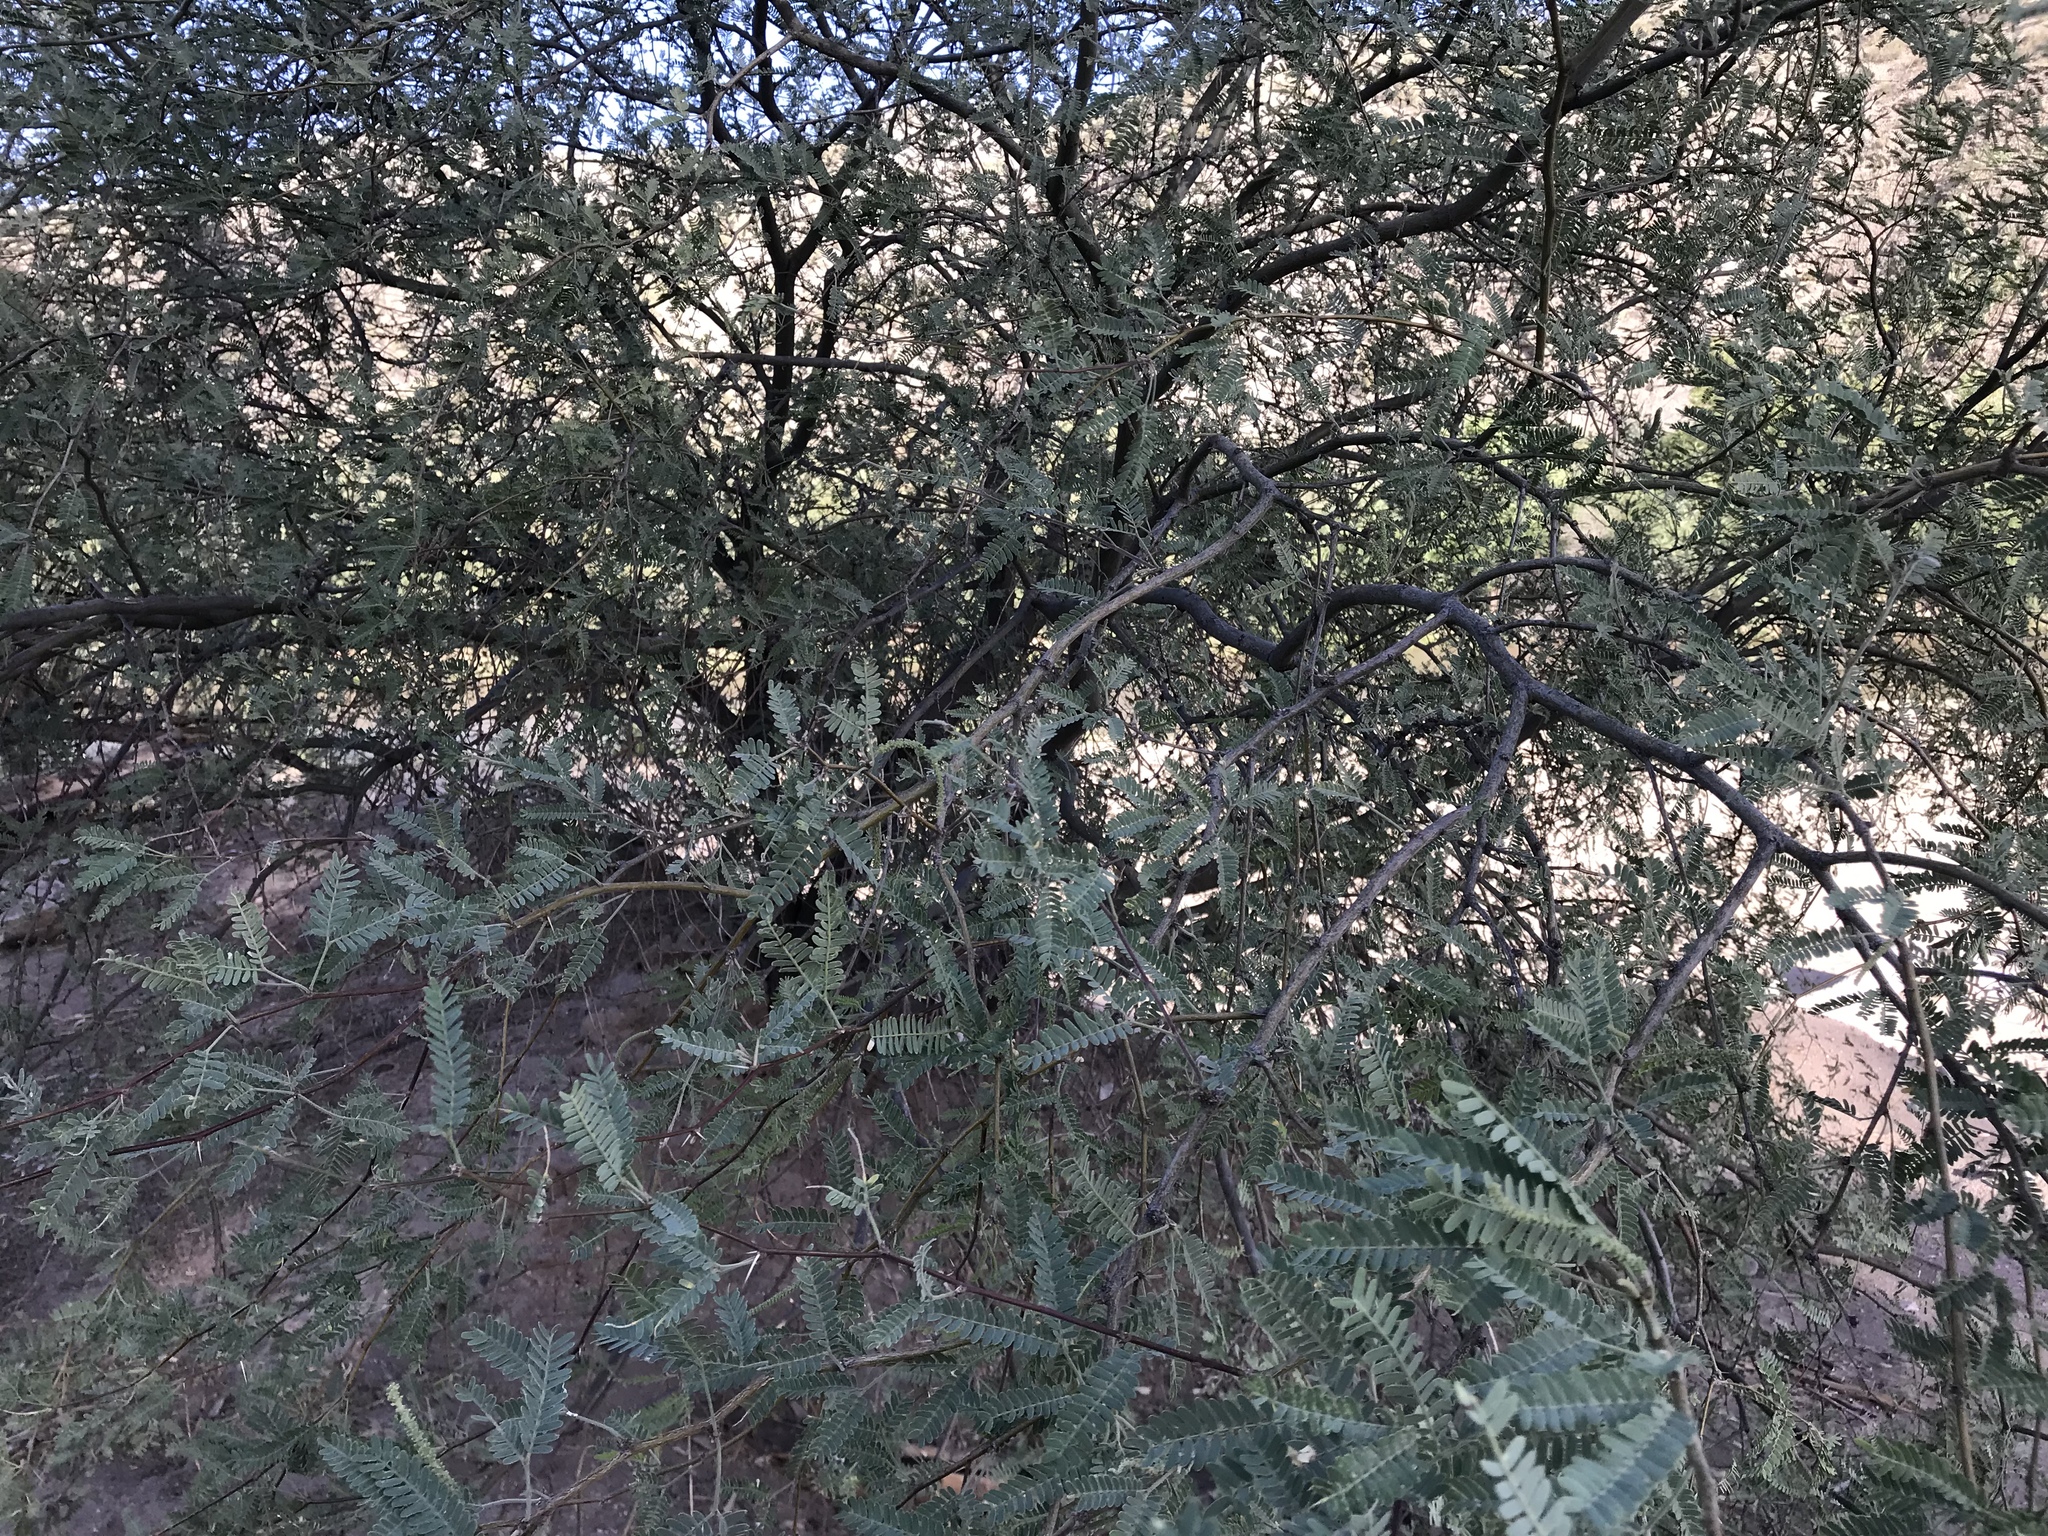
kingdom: Plantae
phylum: Tracheophyta
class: Magnoliopsida
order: Fabales
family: Fabaceae
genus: Prosopis
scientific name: Prosopis velutina
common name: Velvet mesquite
